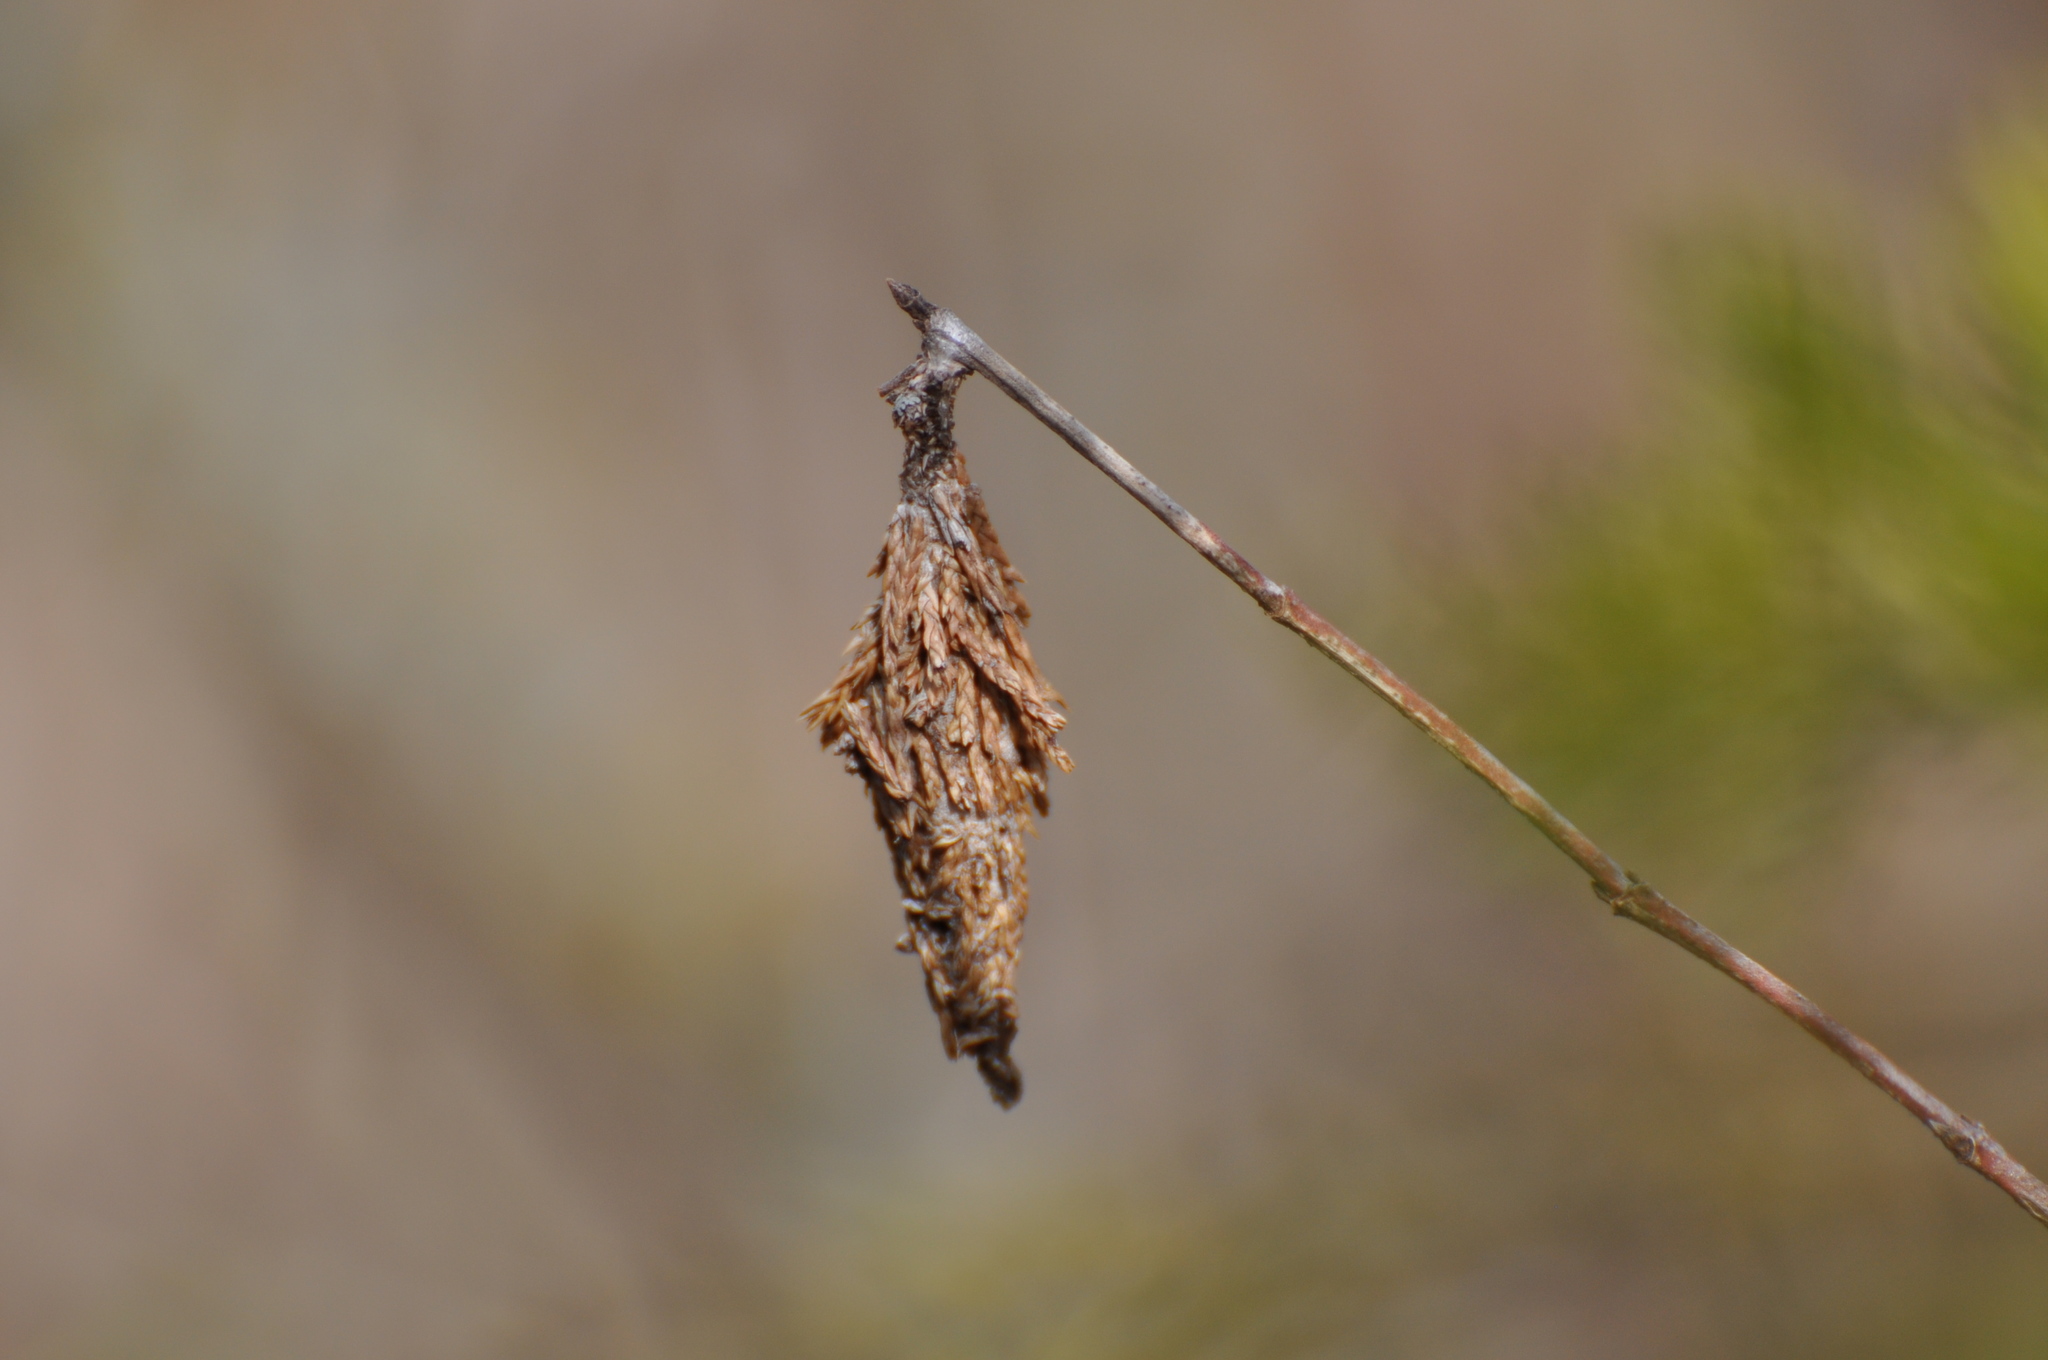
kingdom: Animalia
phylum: Arthropoda
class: Insecta
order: Lepidoptera
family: Psychidae
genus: Thyridopteryx
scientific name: Thyridopteryx ephemeraeformis
